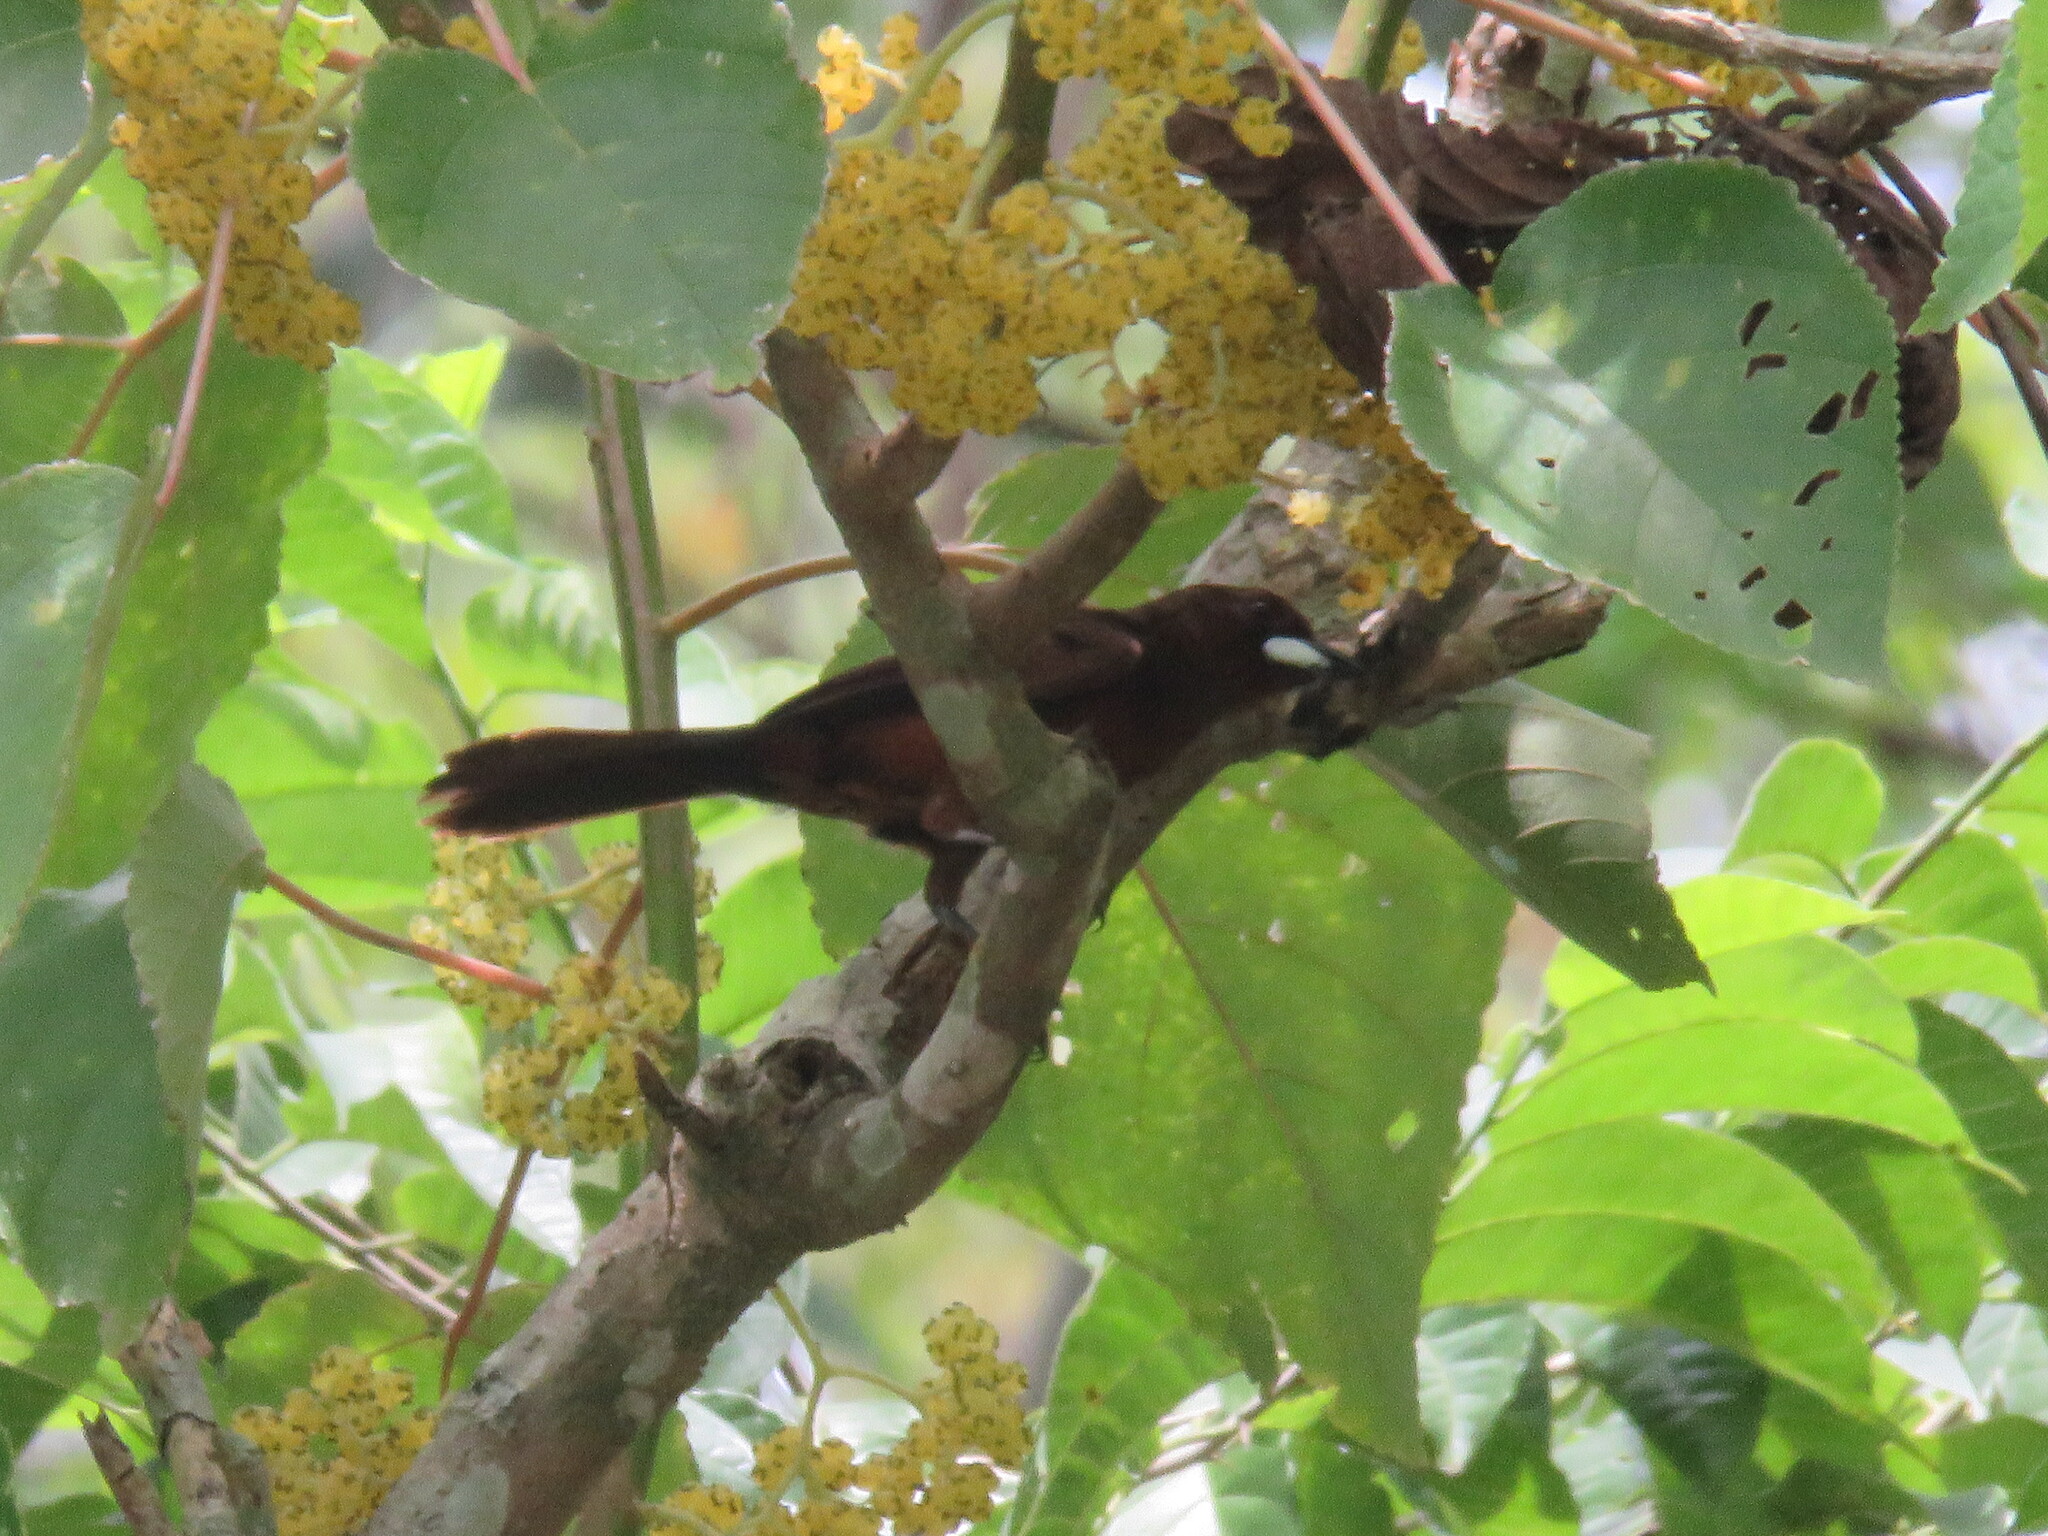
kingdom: Animalia
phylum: Chordata
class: Aves
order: Passeriformes
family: Thraupidae
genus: Ramphocelus
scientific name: Ramphocelus carbo
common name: Silver-beaked tanager
